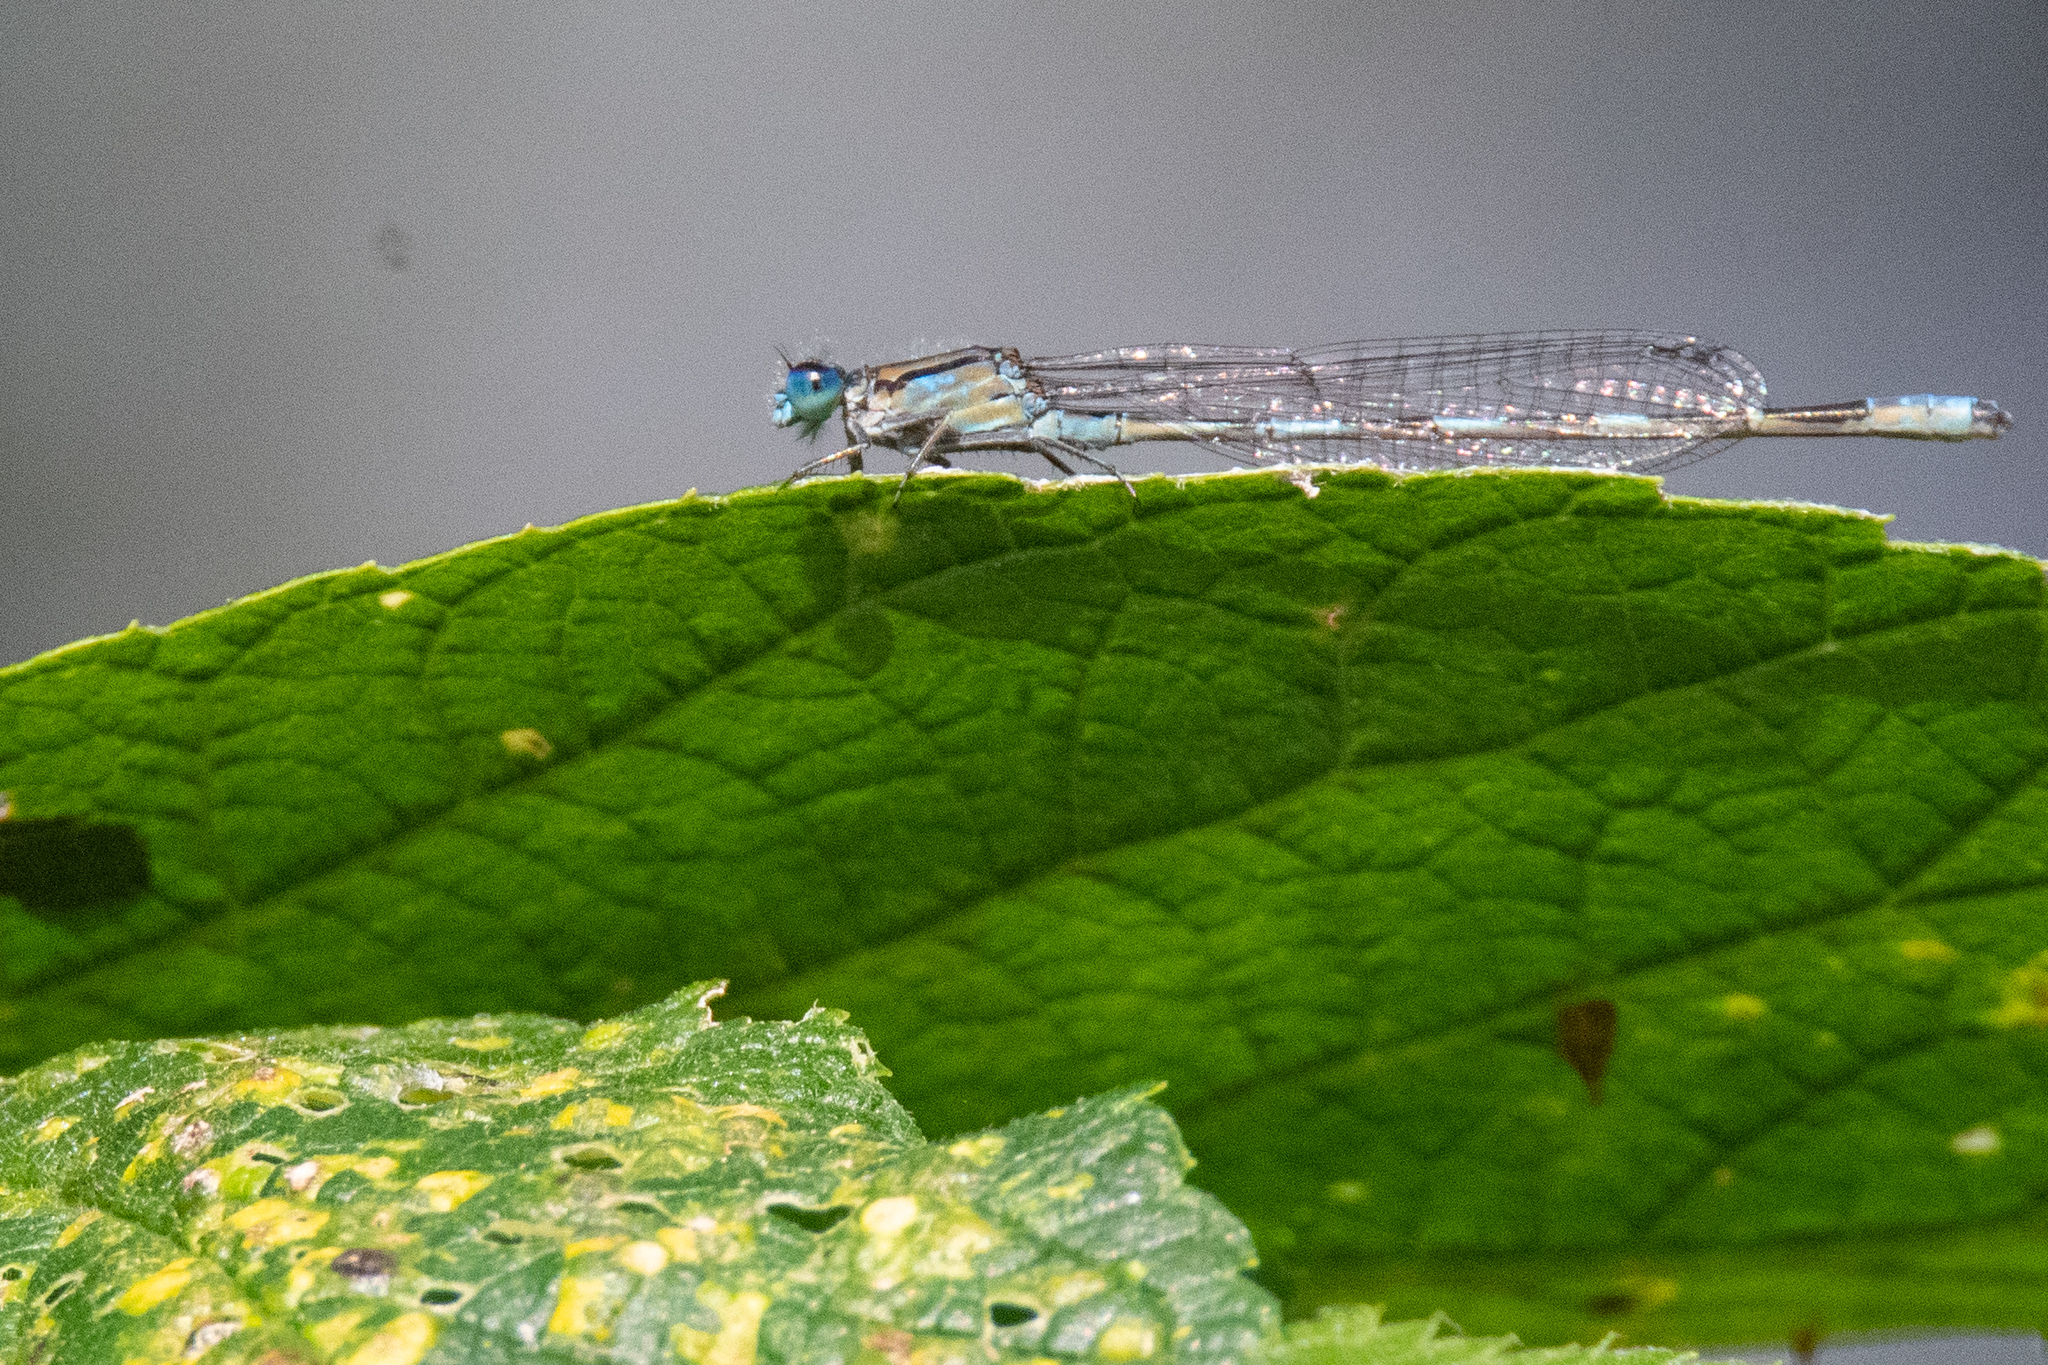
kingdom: Animalia
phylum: Arthropoda
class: Insecta
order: Odonata
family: Coenagrionidae
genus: Enallagma
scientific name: Enallagma carunculatum
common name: Tule bluet
